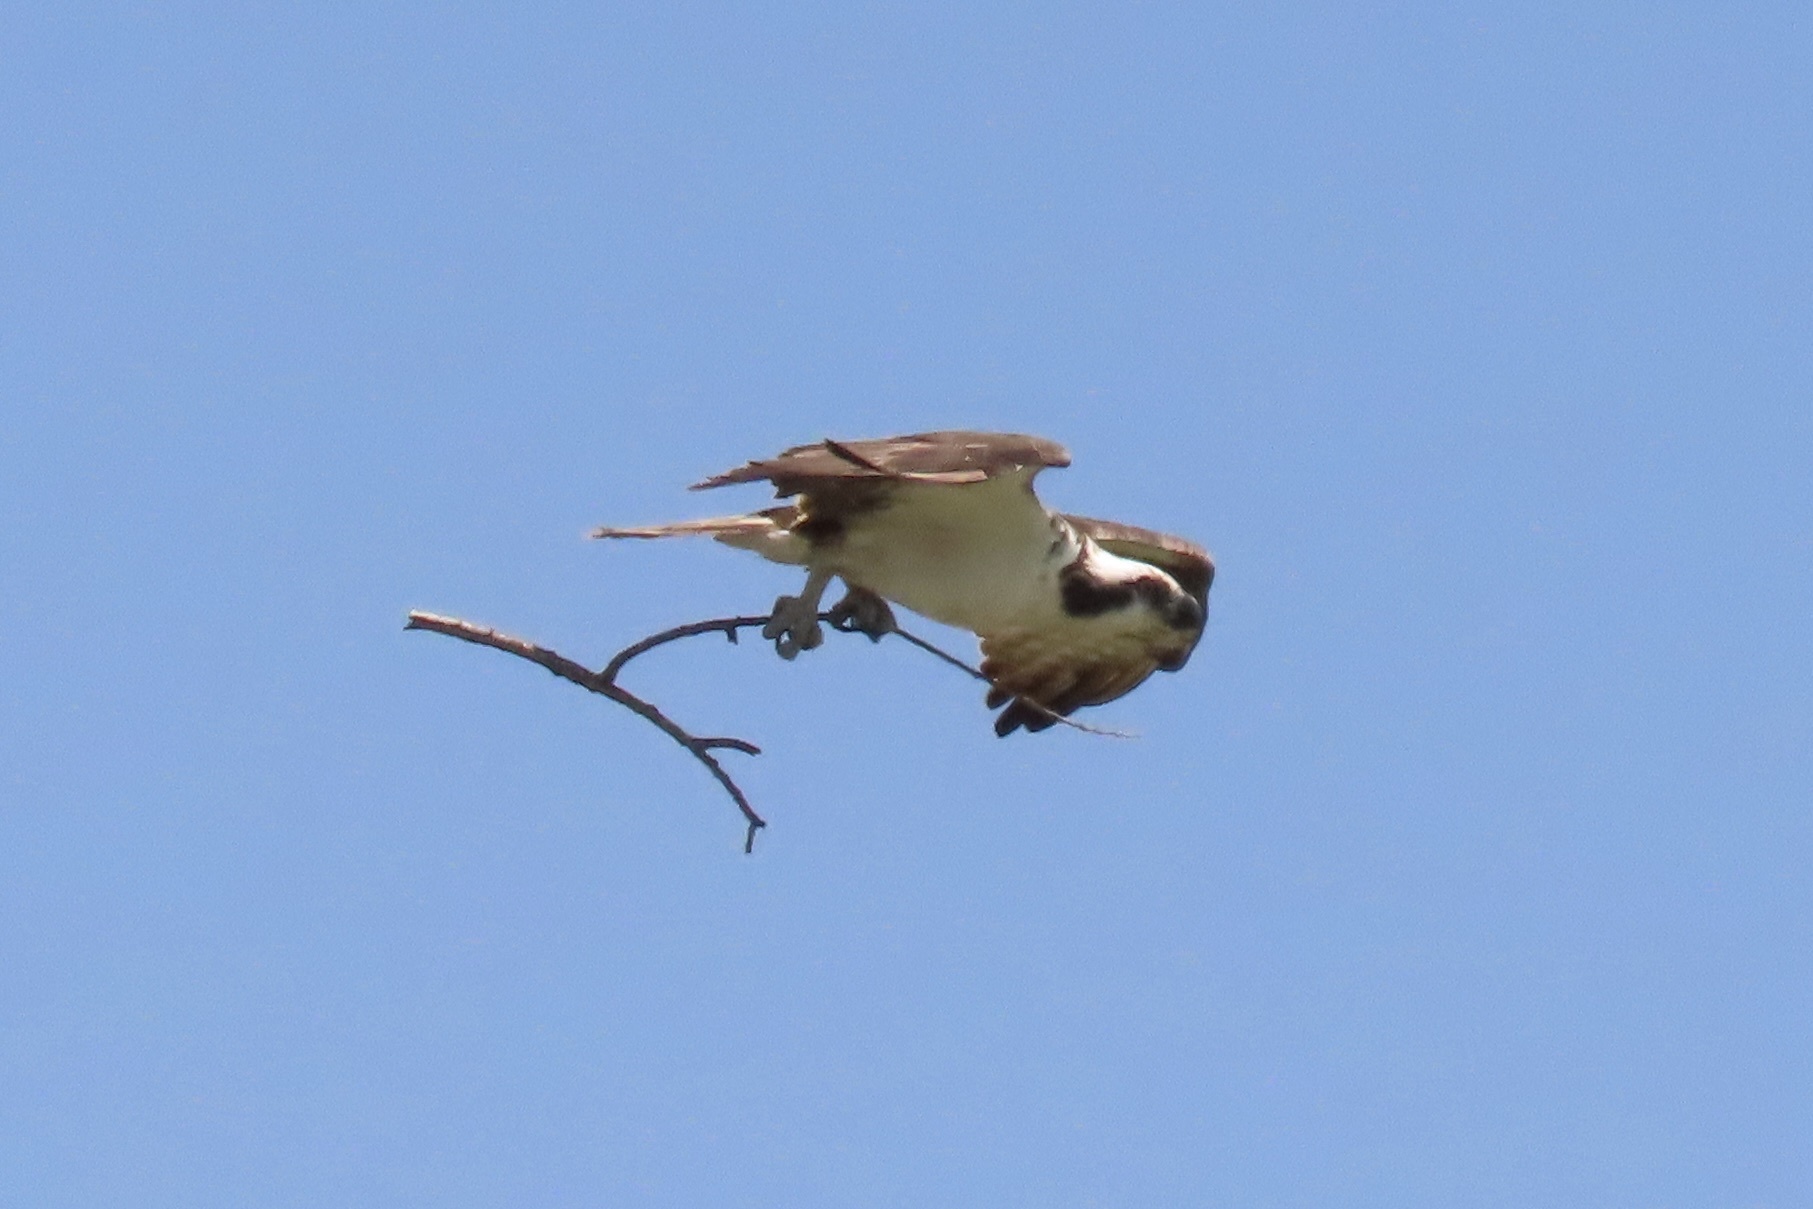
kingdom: Animalia
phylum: Chordata
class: Aves
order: Accipitriformes
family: Pandionidae
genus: Pandion
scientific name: Pandion haliaetus
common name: Osprey
